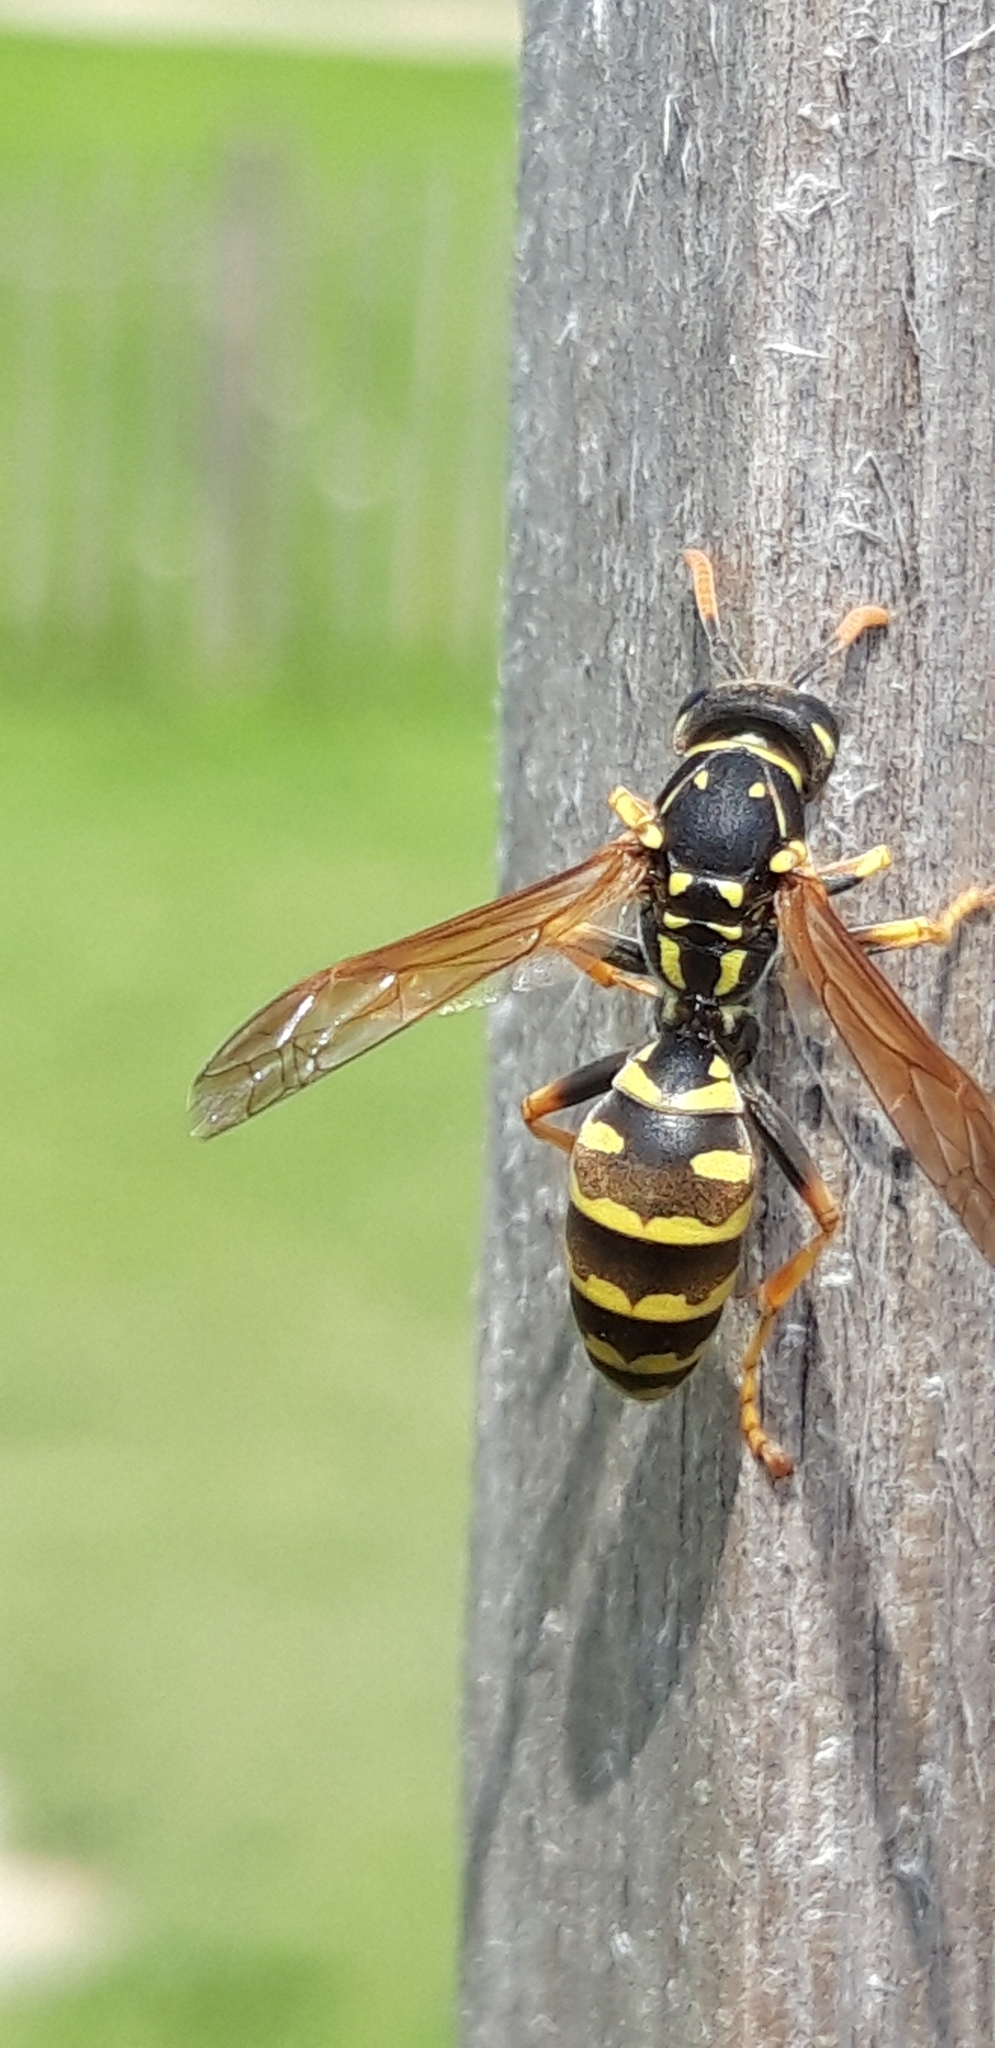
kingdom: Animalia
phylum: Arthropoda
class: Insecta
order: Hymenoptera
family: Eumenidae
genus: Polistes
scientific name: Polistes dominula
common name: Paper wasp
